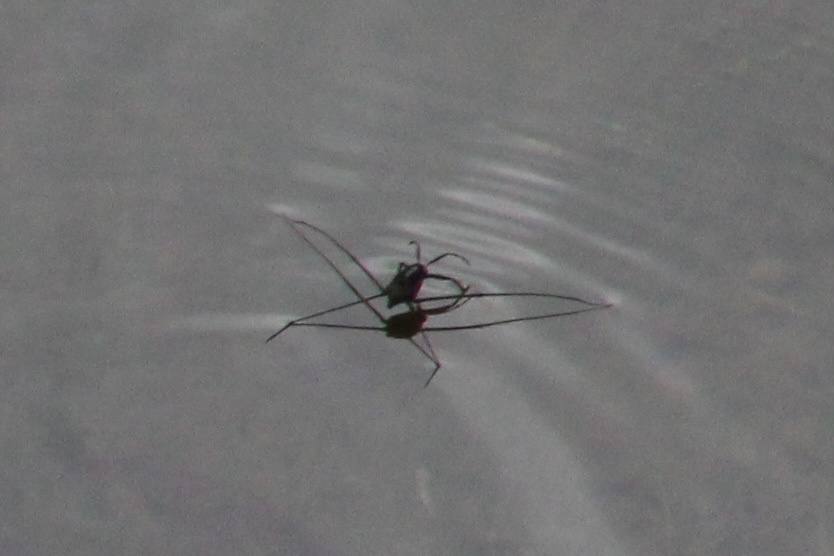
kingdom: Animalia
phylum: Arthropoda
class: Insecta
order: Hemiptera
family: Gerridae
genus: Metrobates
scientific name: Metrobates hesperius
